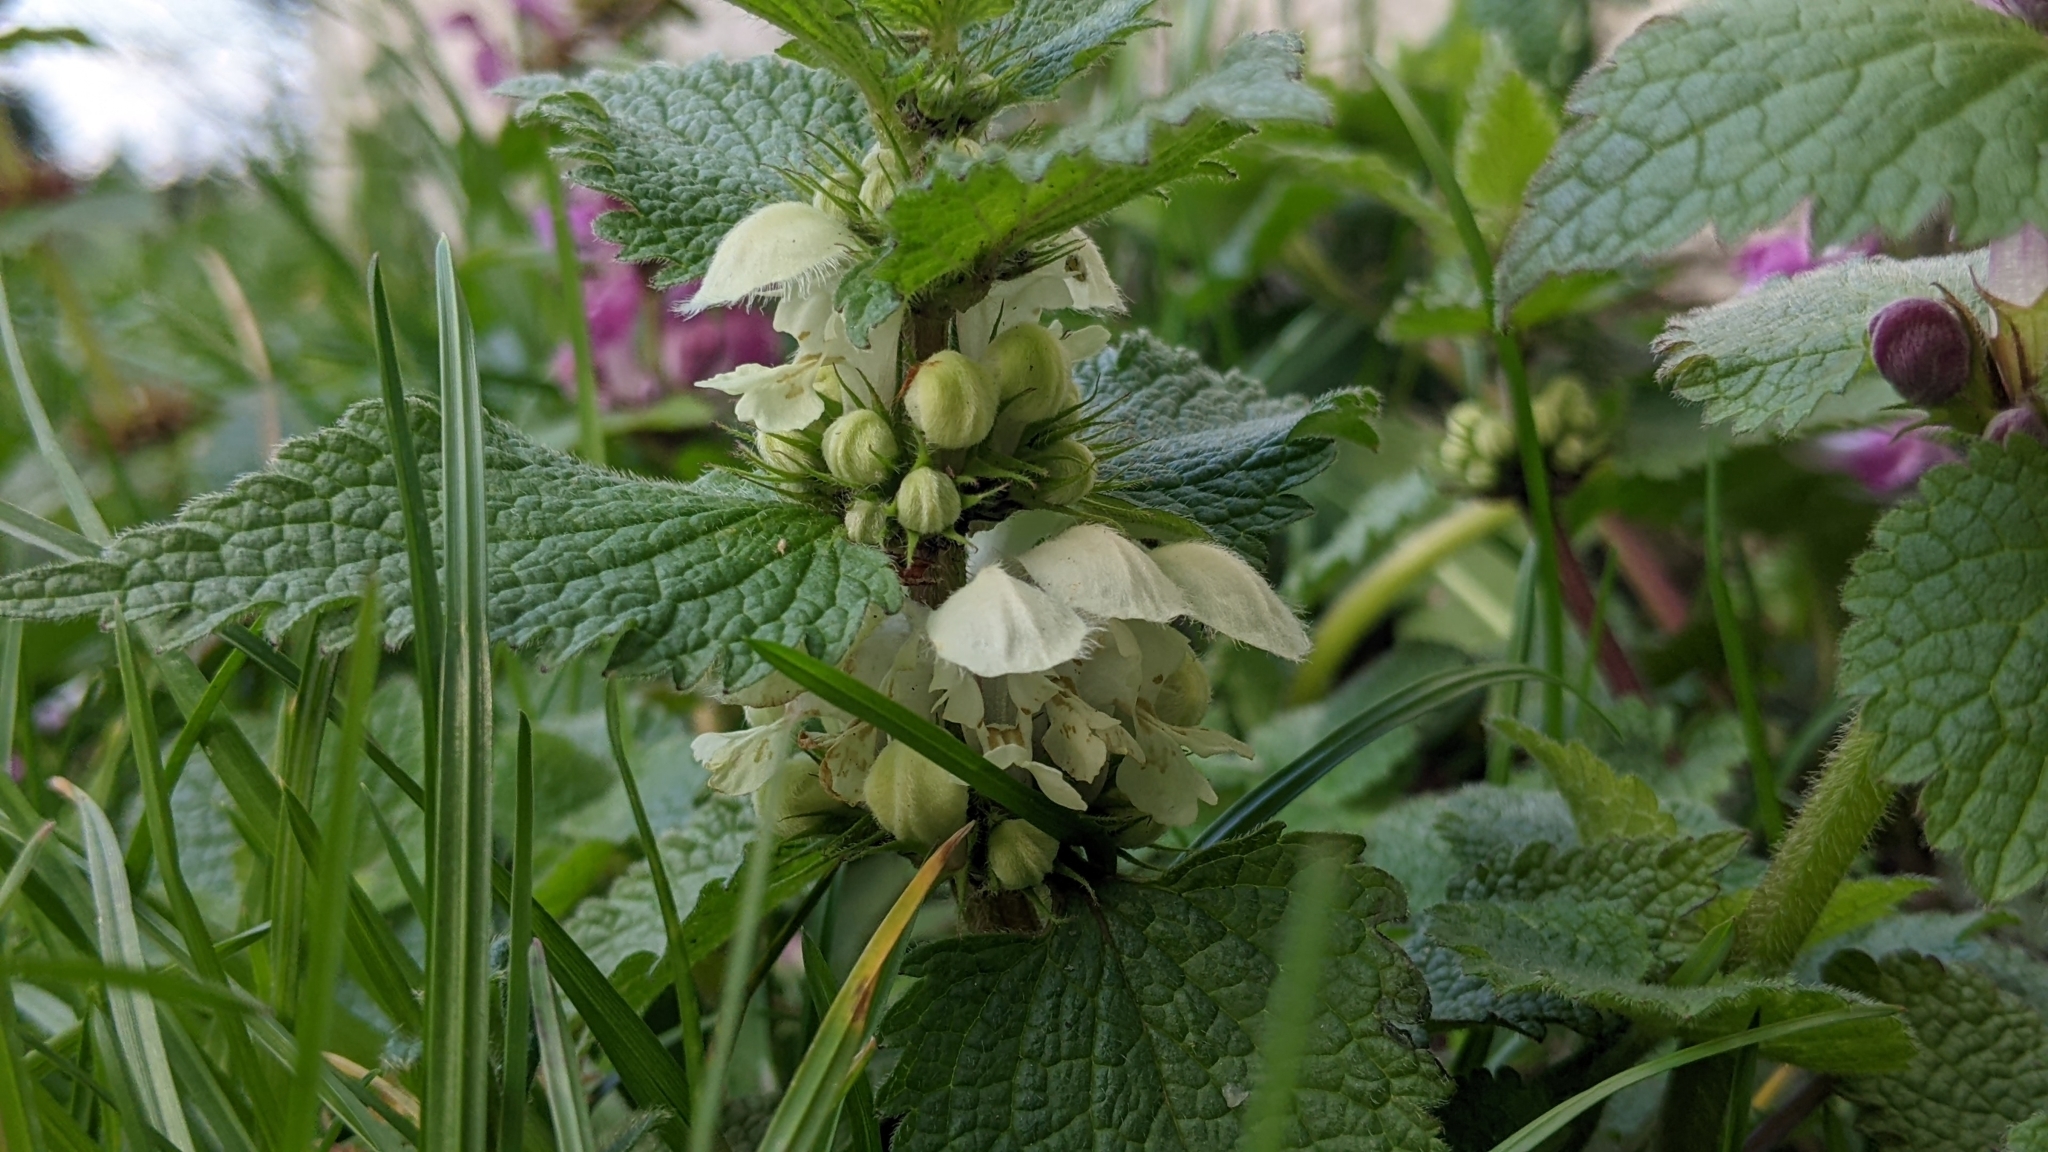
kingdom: Plantae
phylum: Tracheophyta
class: Magnoliopsida
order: Lamiales
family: Lamiaceae
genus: Lamium
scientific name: Lamium album
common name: White dead-nettle
